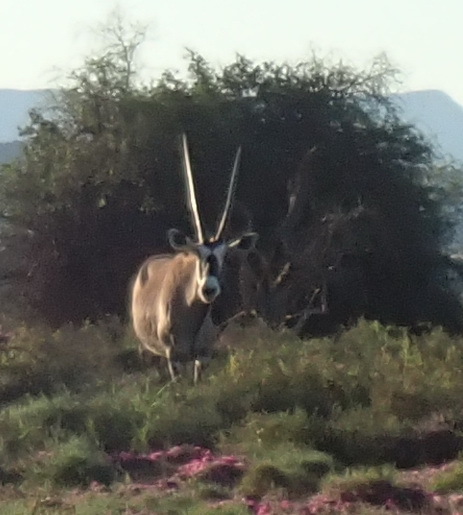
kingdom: Animalia
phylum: Chordata
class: Mammalia
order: Artiodactyla
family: Bovidae
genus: Oryx
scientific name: Oryx gazella
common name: Gemsbok
